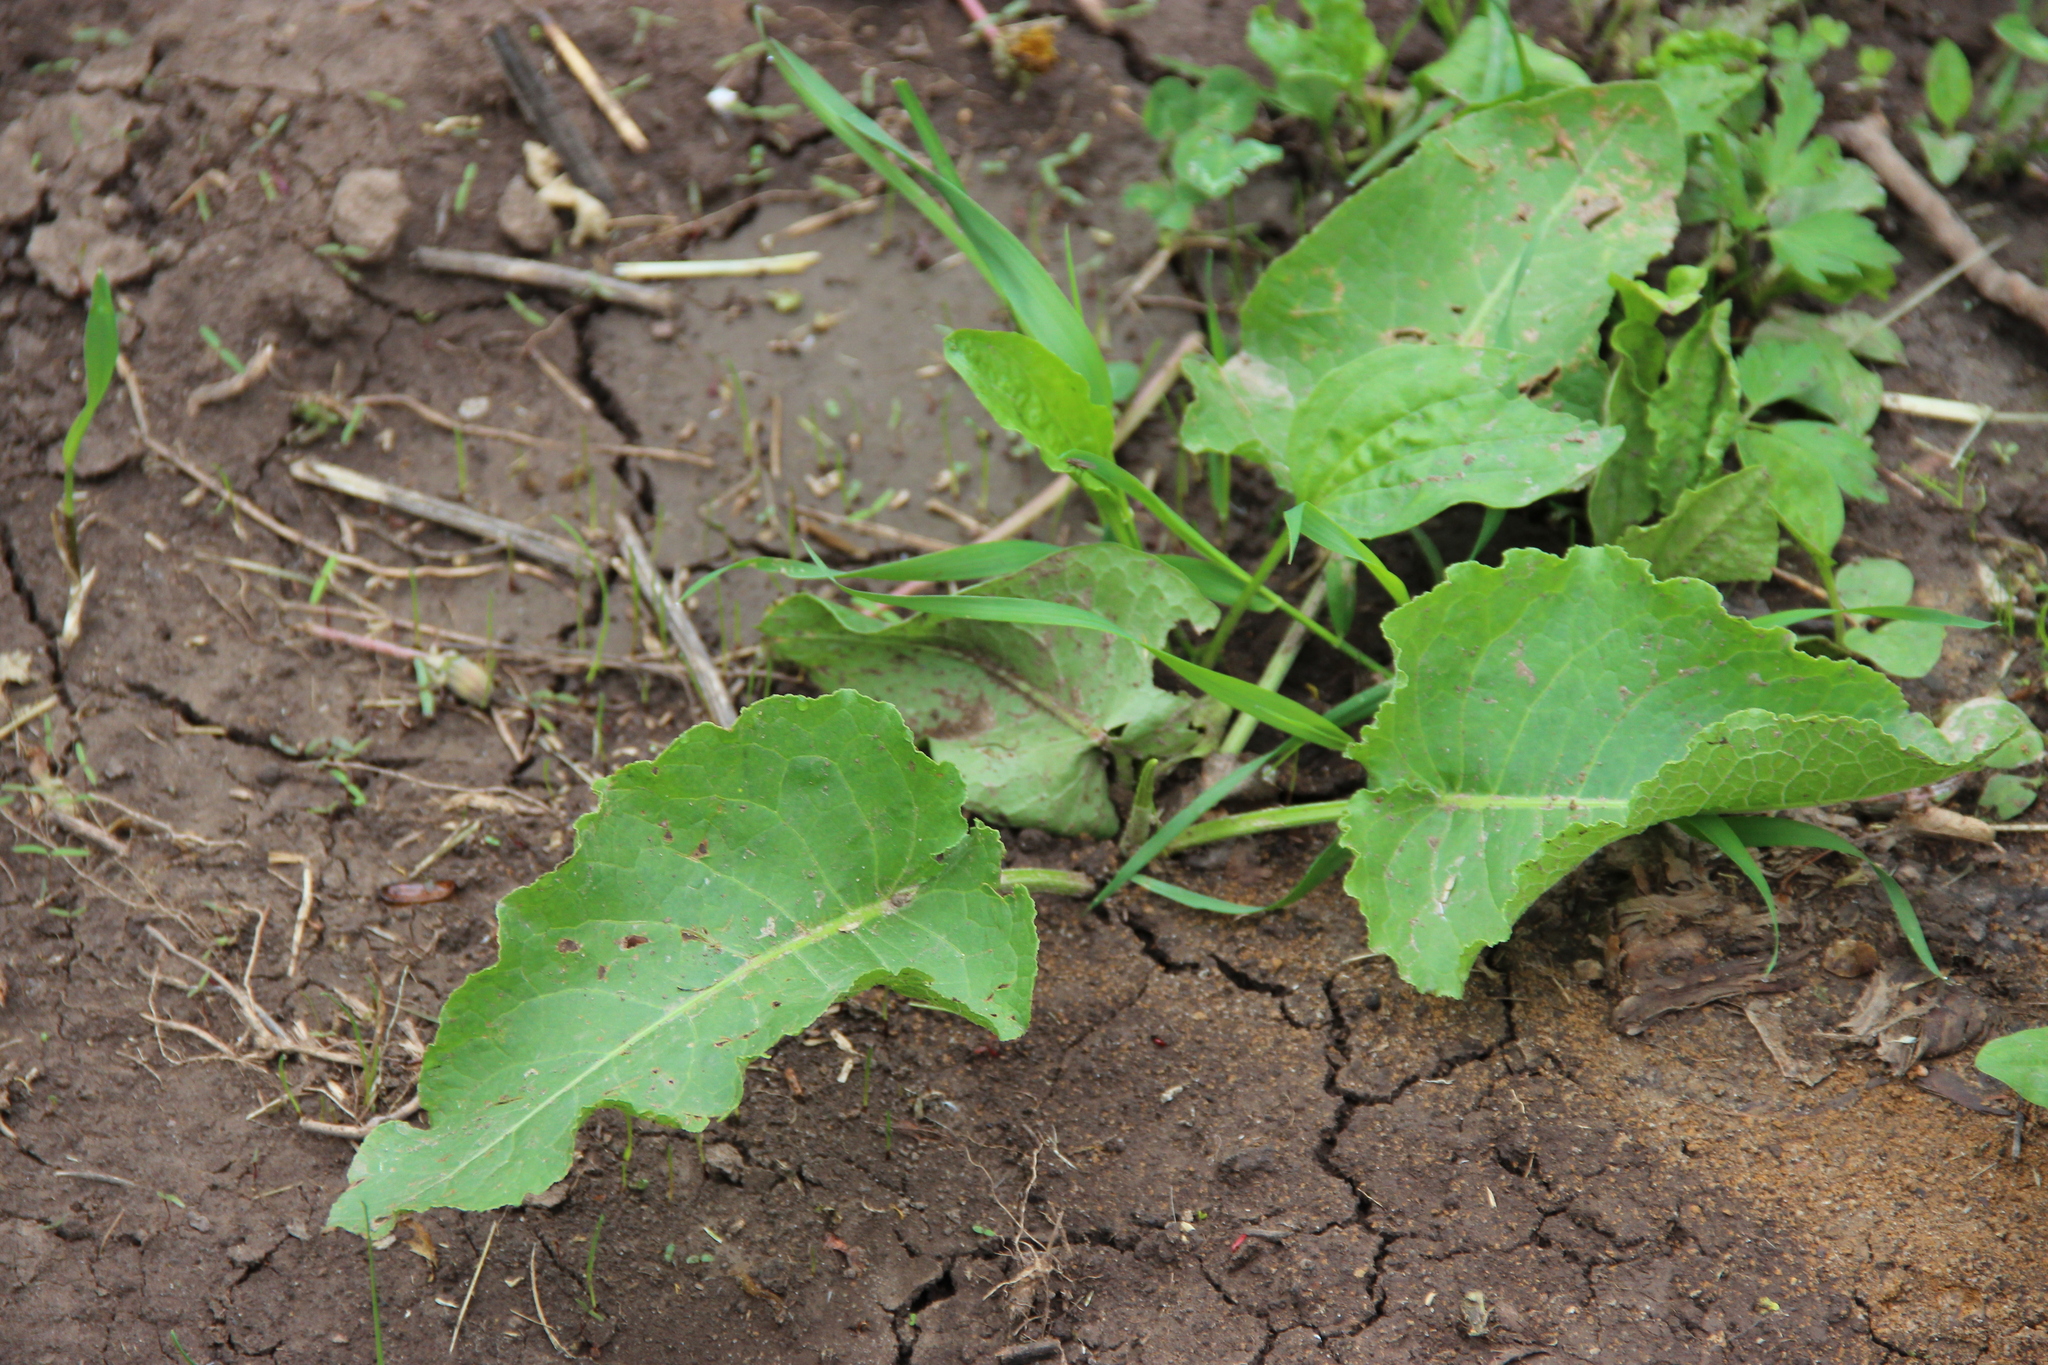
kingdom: Plantae
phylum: Tracheophyta
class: Magnoliopsida
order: Caryophyllales
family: Polygonaceae
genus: Rumex
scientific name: Rumex confertus
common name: Russian dock
